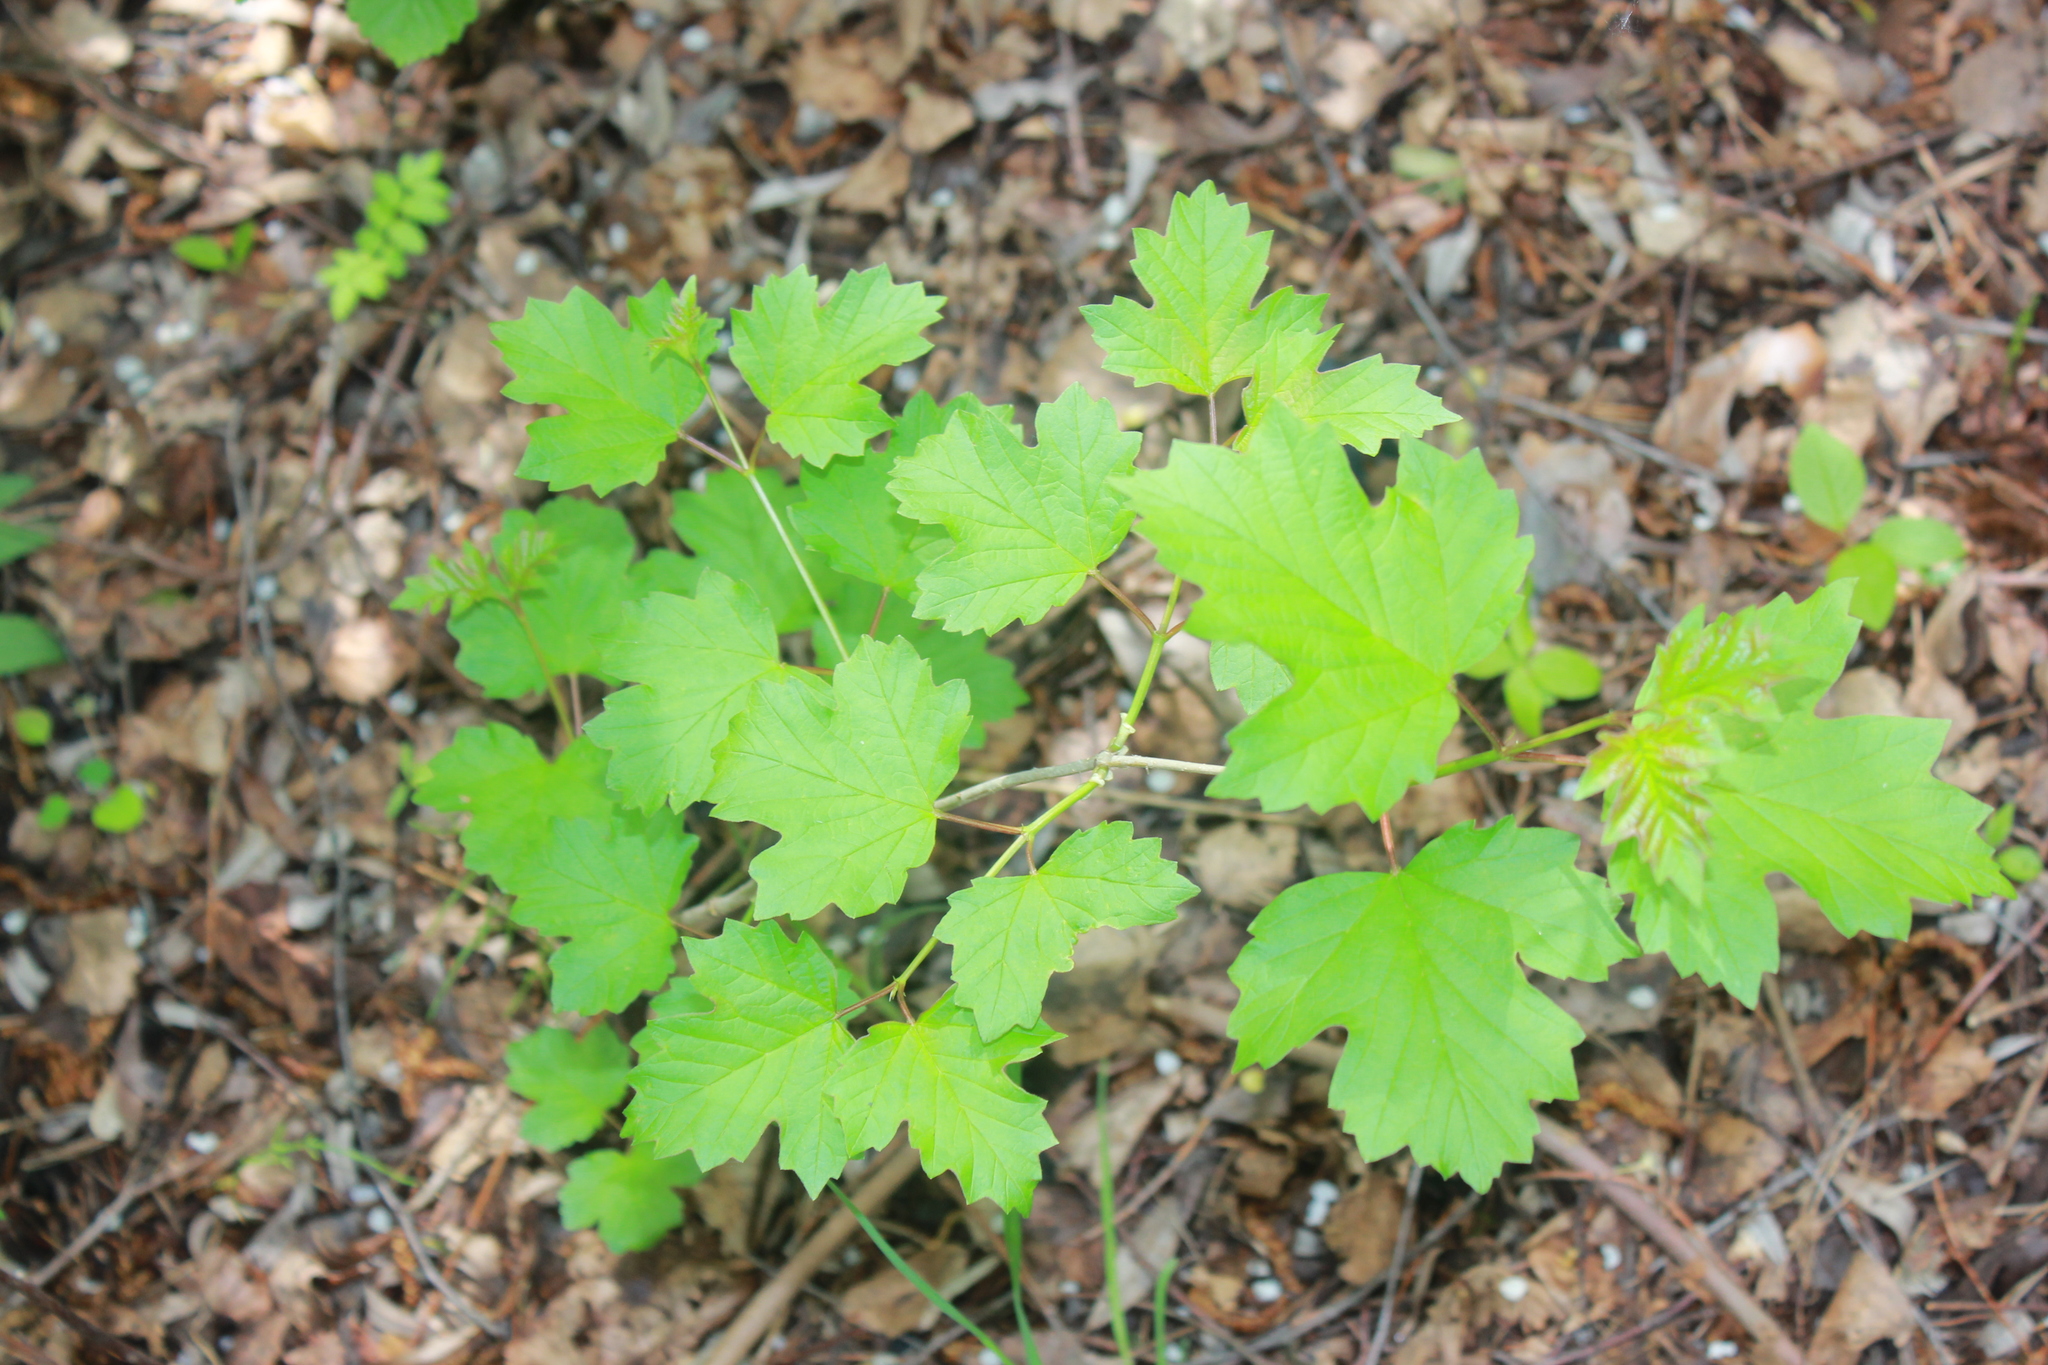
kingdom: Plantae
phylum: Tracheophyta
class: Magnoliopsida
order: Dipsacales
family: Viburnaceae
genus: Viburnum
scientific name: Viburnum opulus
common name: Guelder-rose
